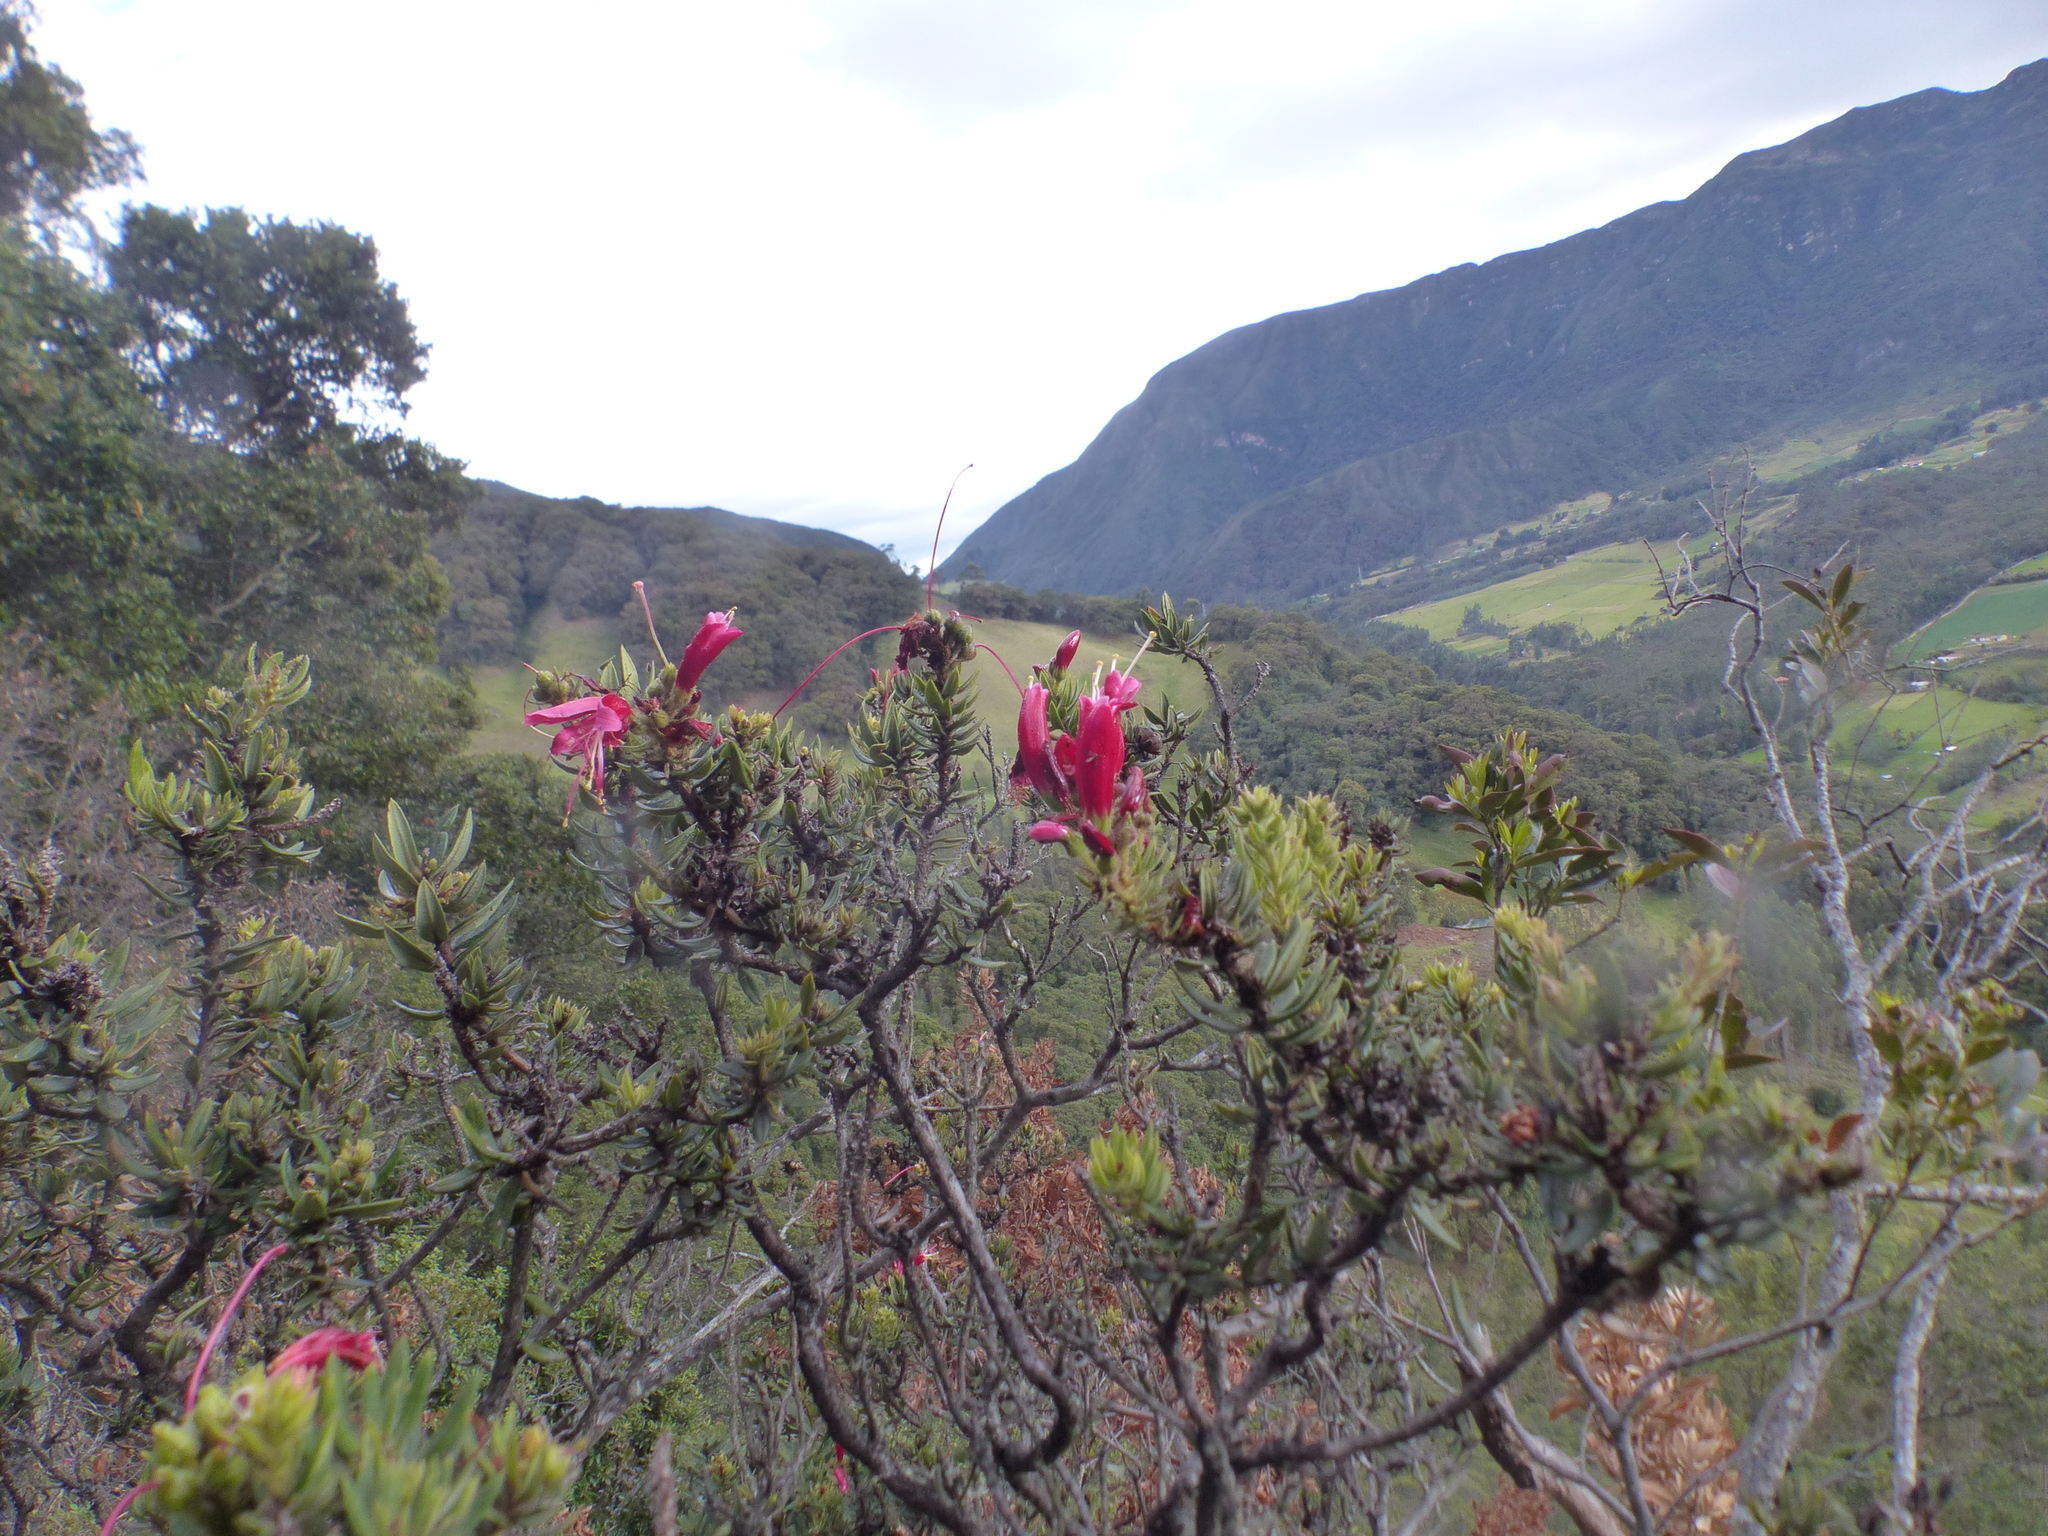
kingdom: Plantae
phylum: Tracheophyta
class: Magnoliopsida
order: Ericales
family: Ericaceae
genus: Bejaria
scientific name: Bejaria resinosa
